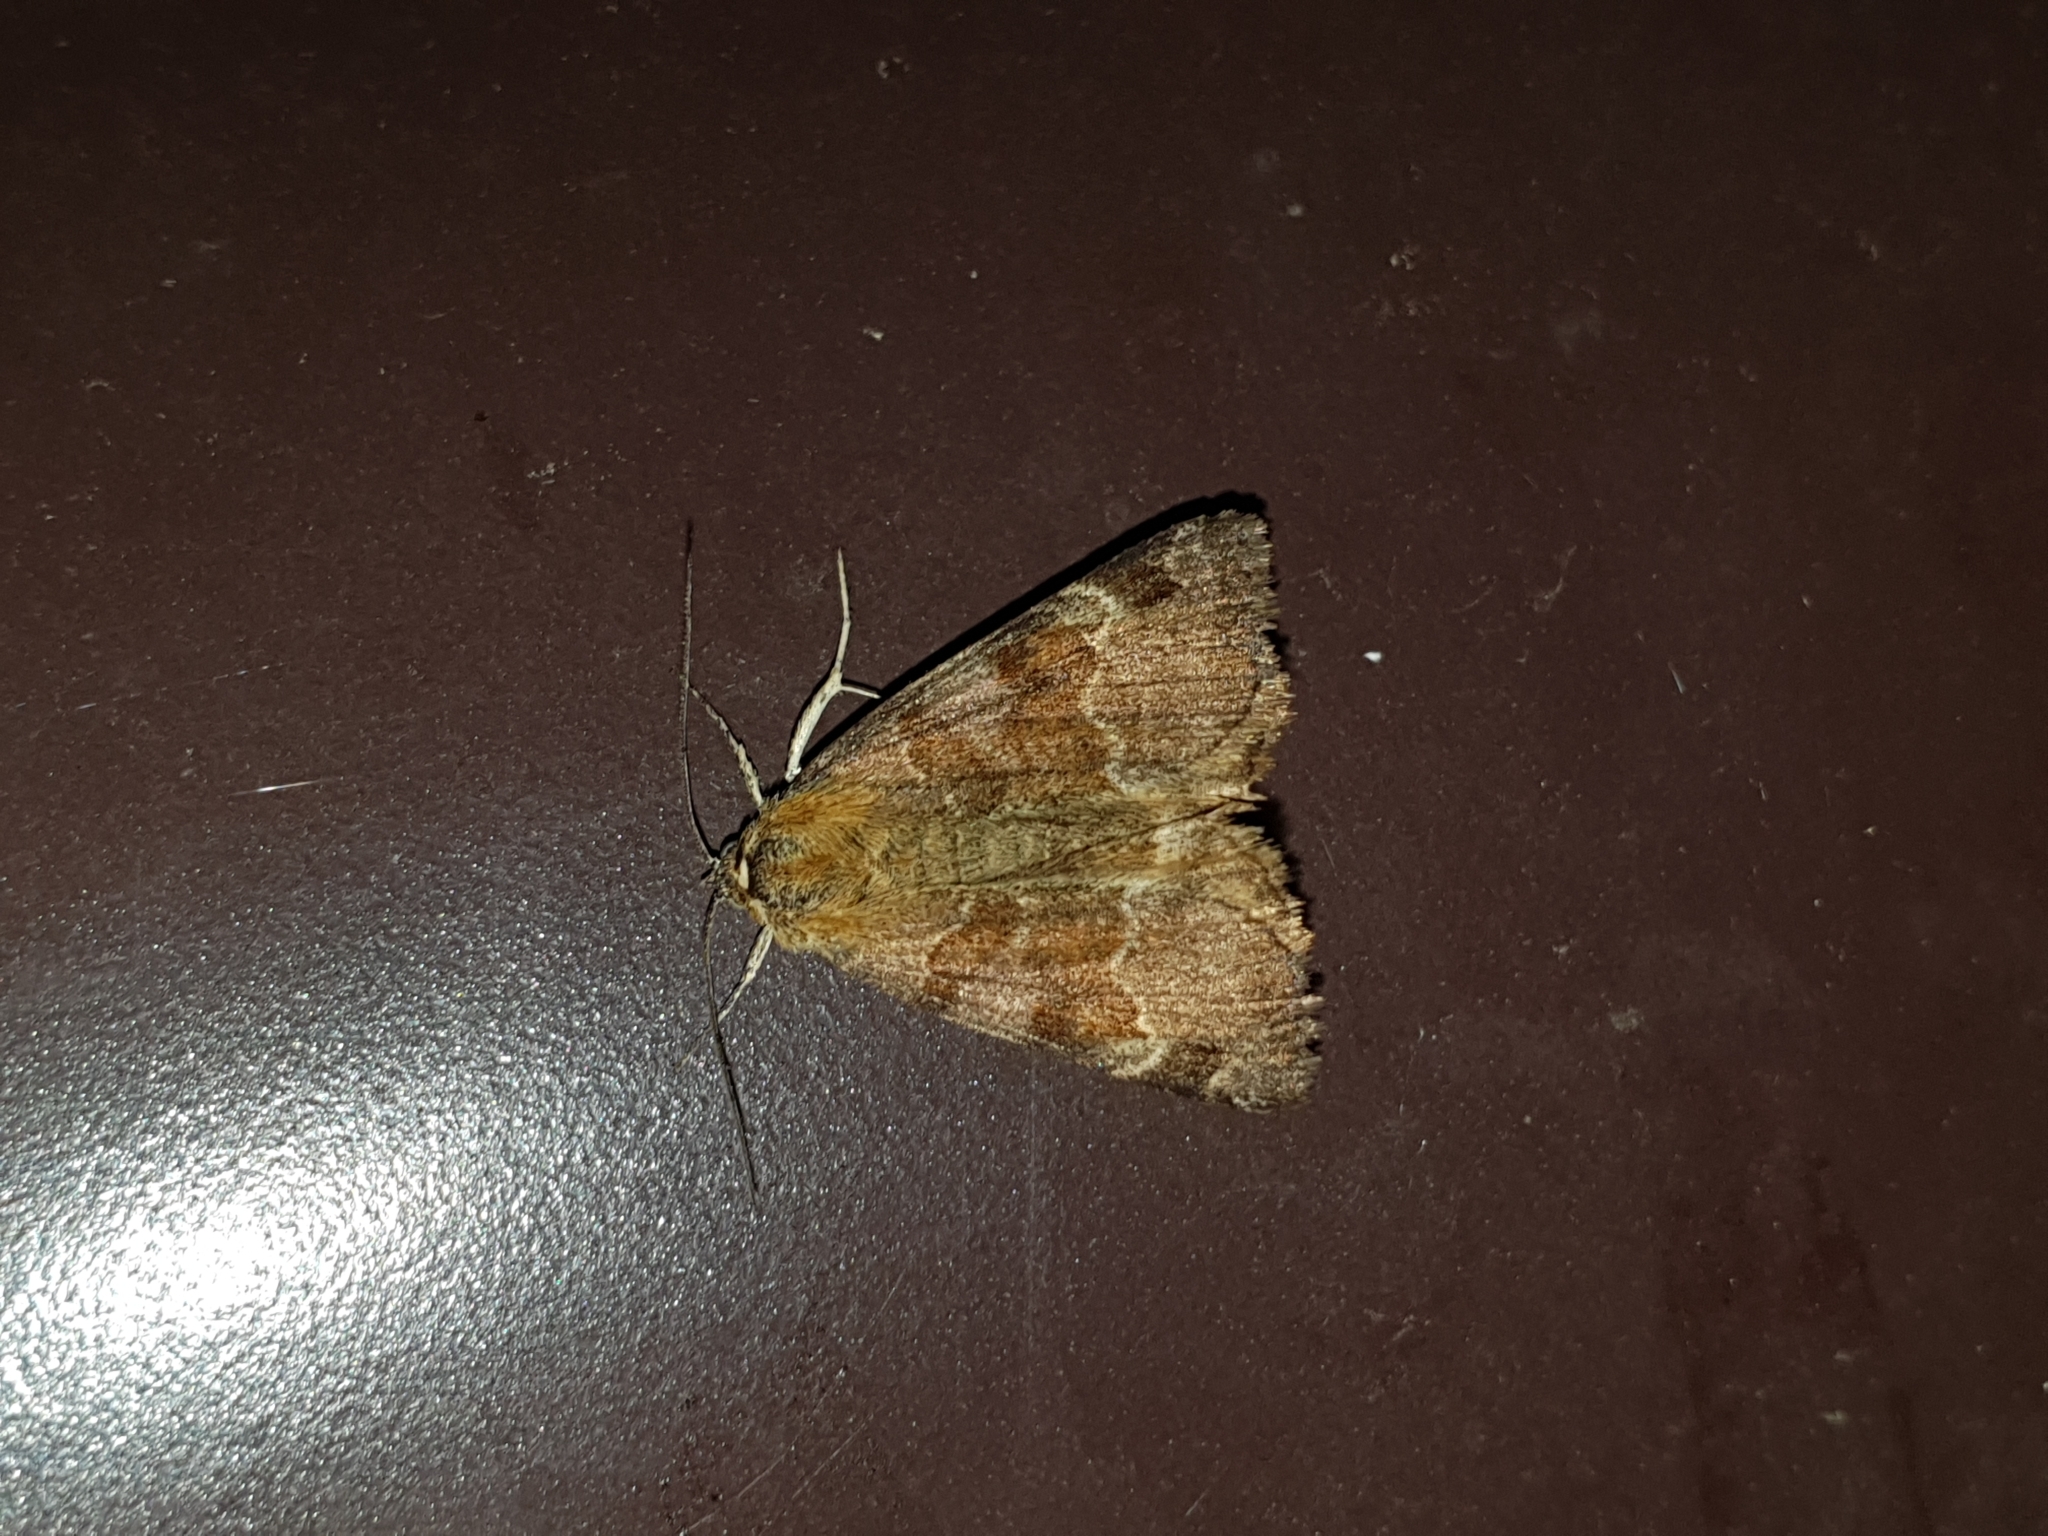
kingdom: Animalia
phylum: Arthropoda
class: Insecta
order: Lepidoptera
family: Erebidae
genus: Euclidia
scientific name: Euclidia glyphica
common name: Burnet companion
